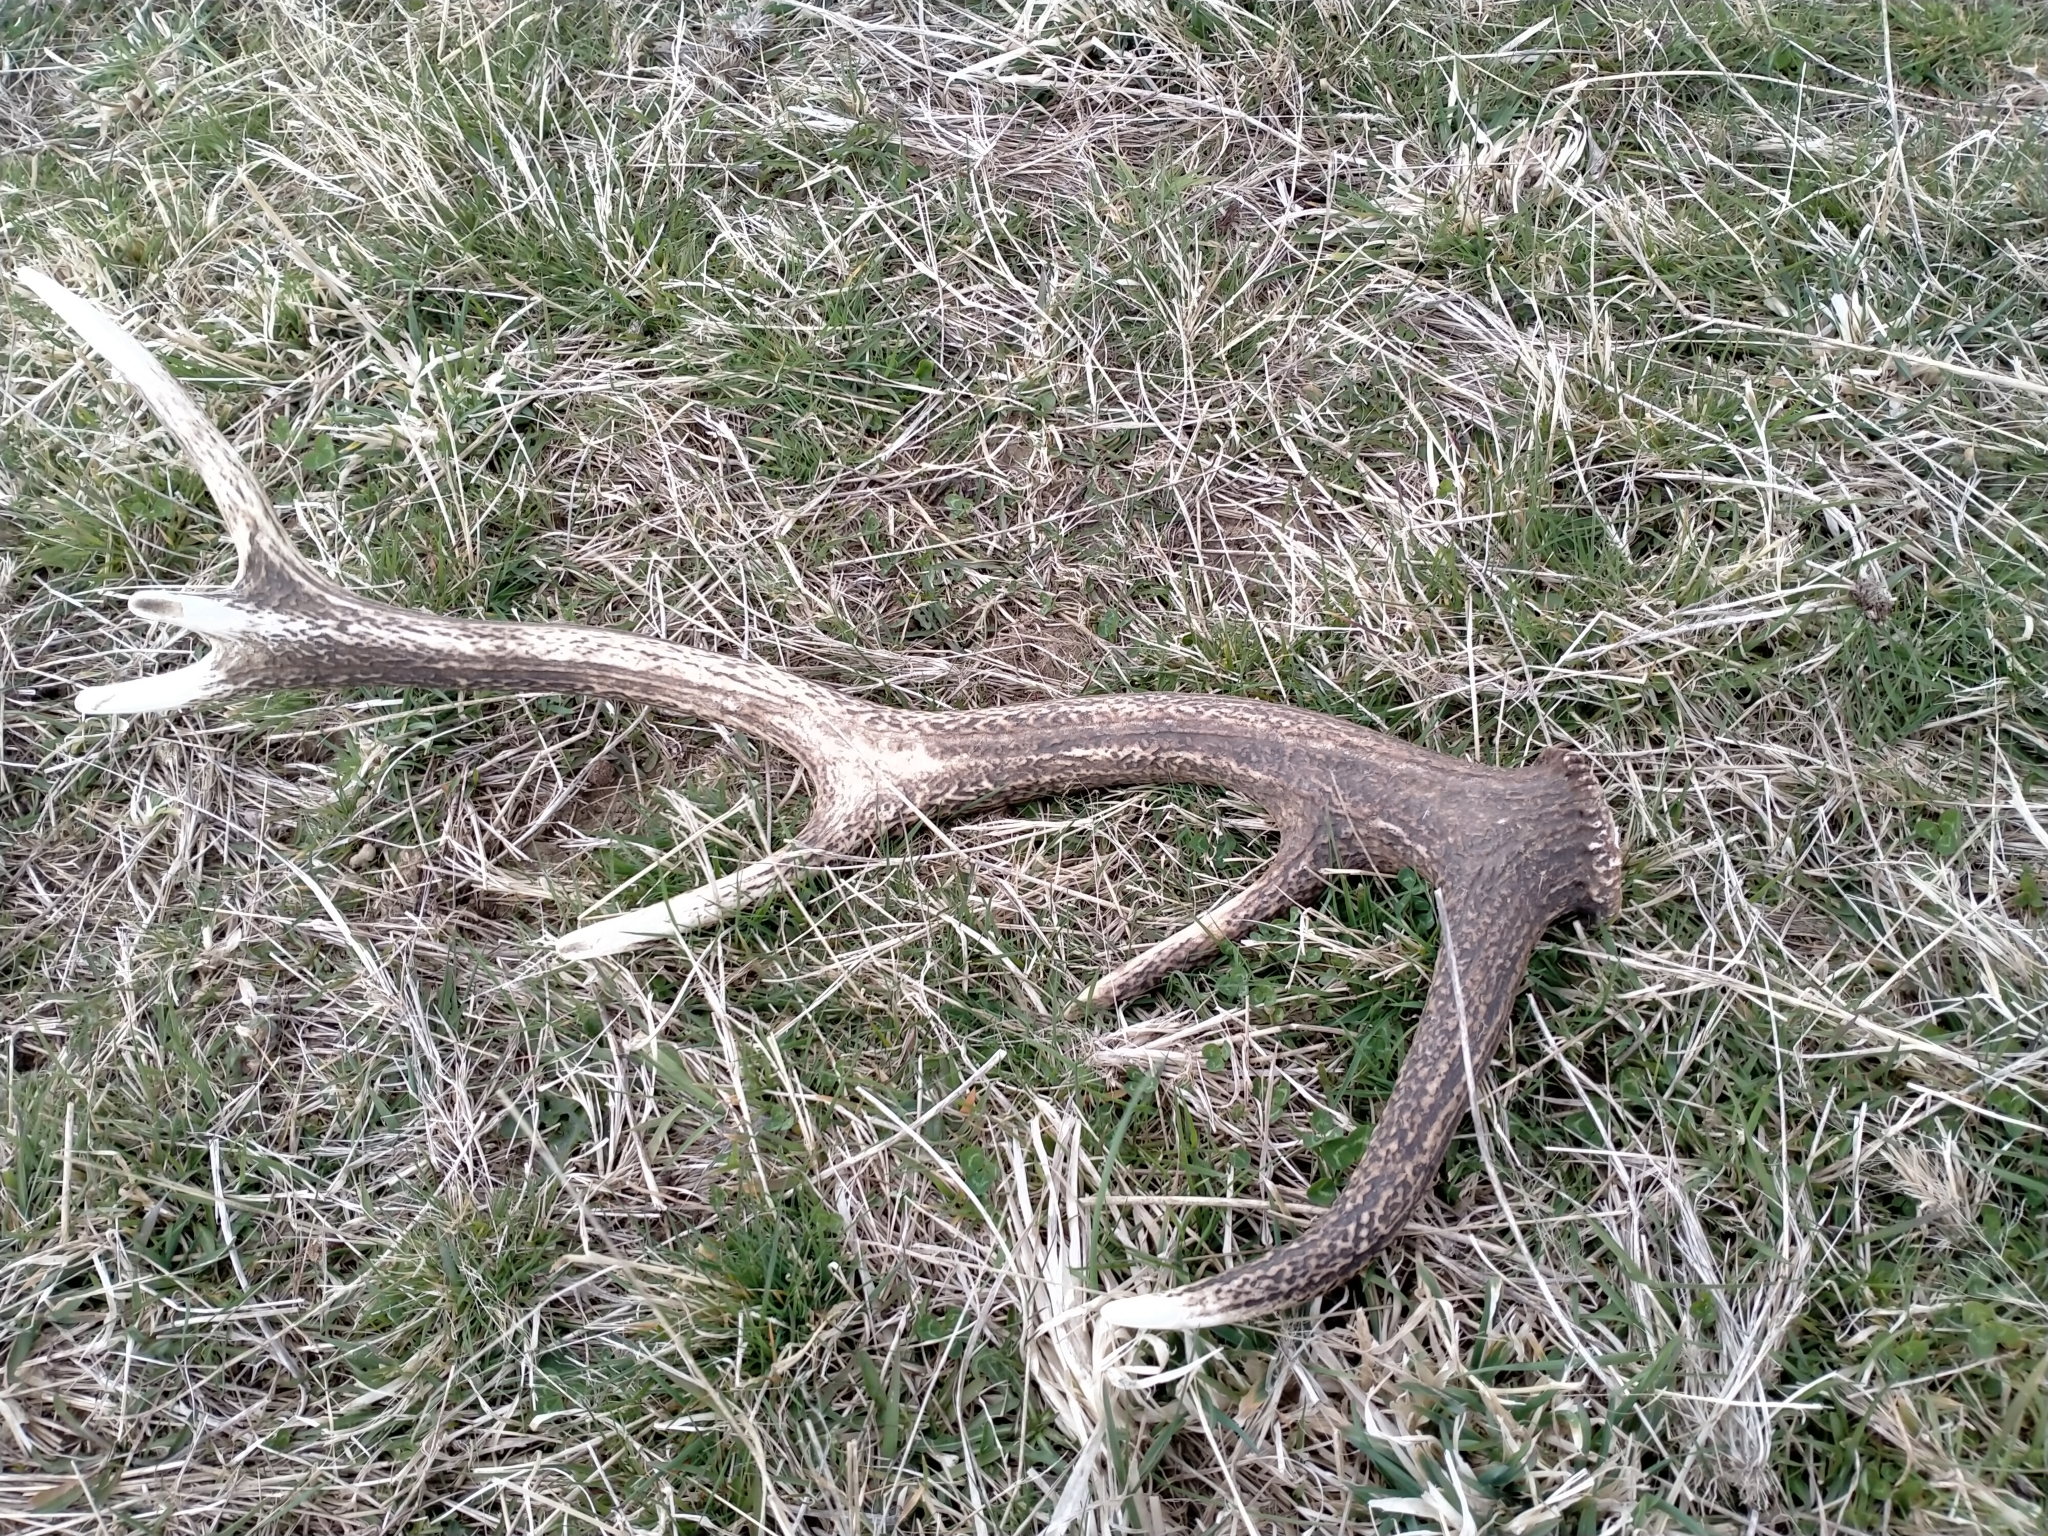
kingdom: Animalia
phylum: Chordata
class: Mammalia
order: Artiodactyla
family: Cervidae
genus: Cervus
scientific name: Cervus elaphus
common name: Red deer
